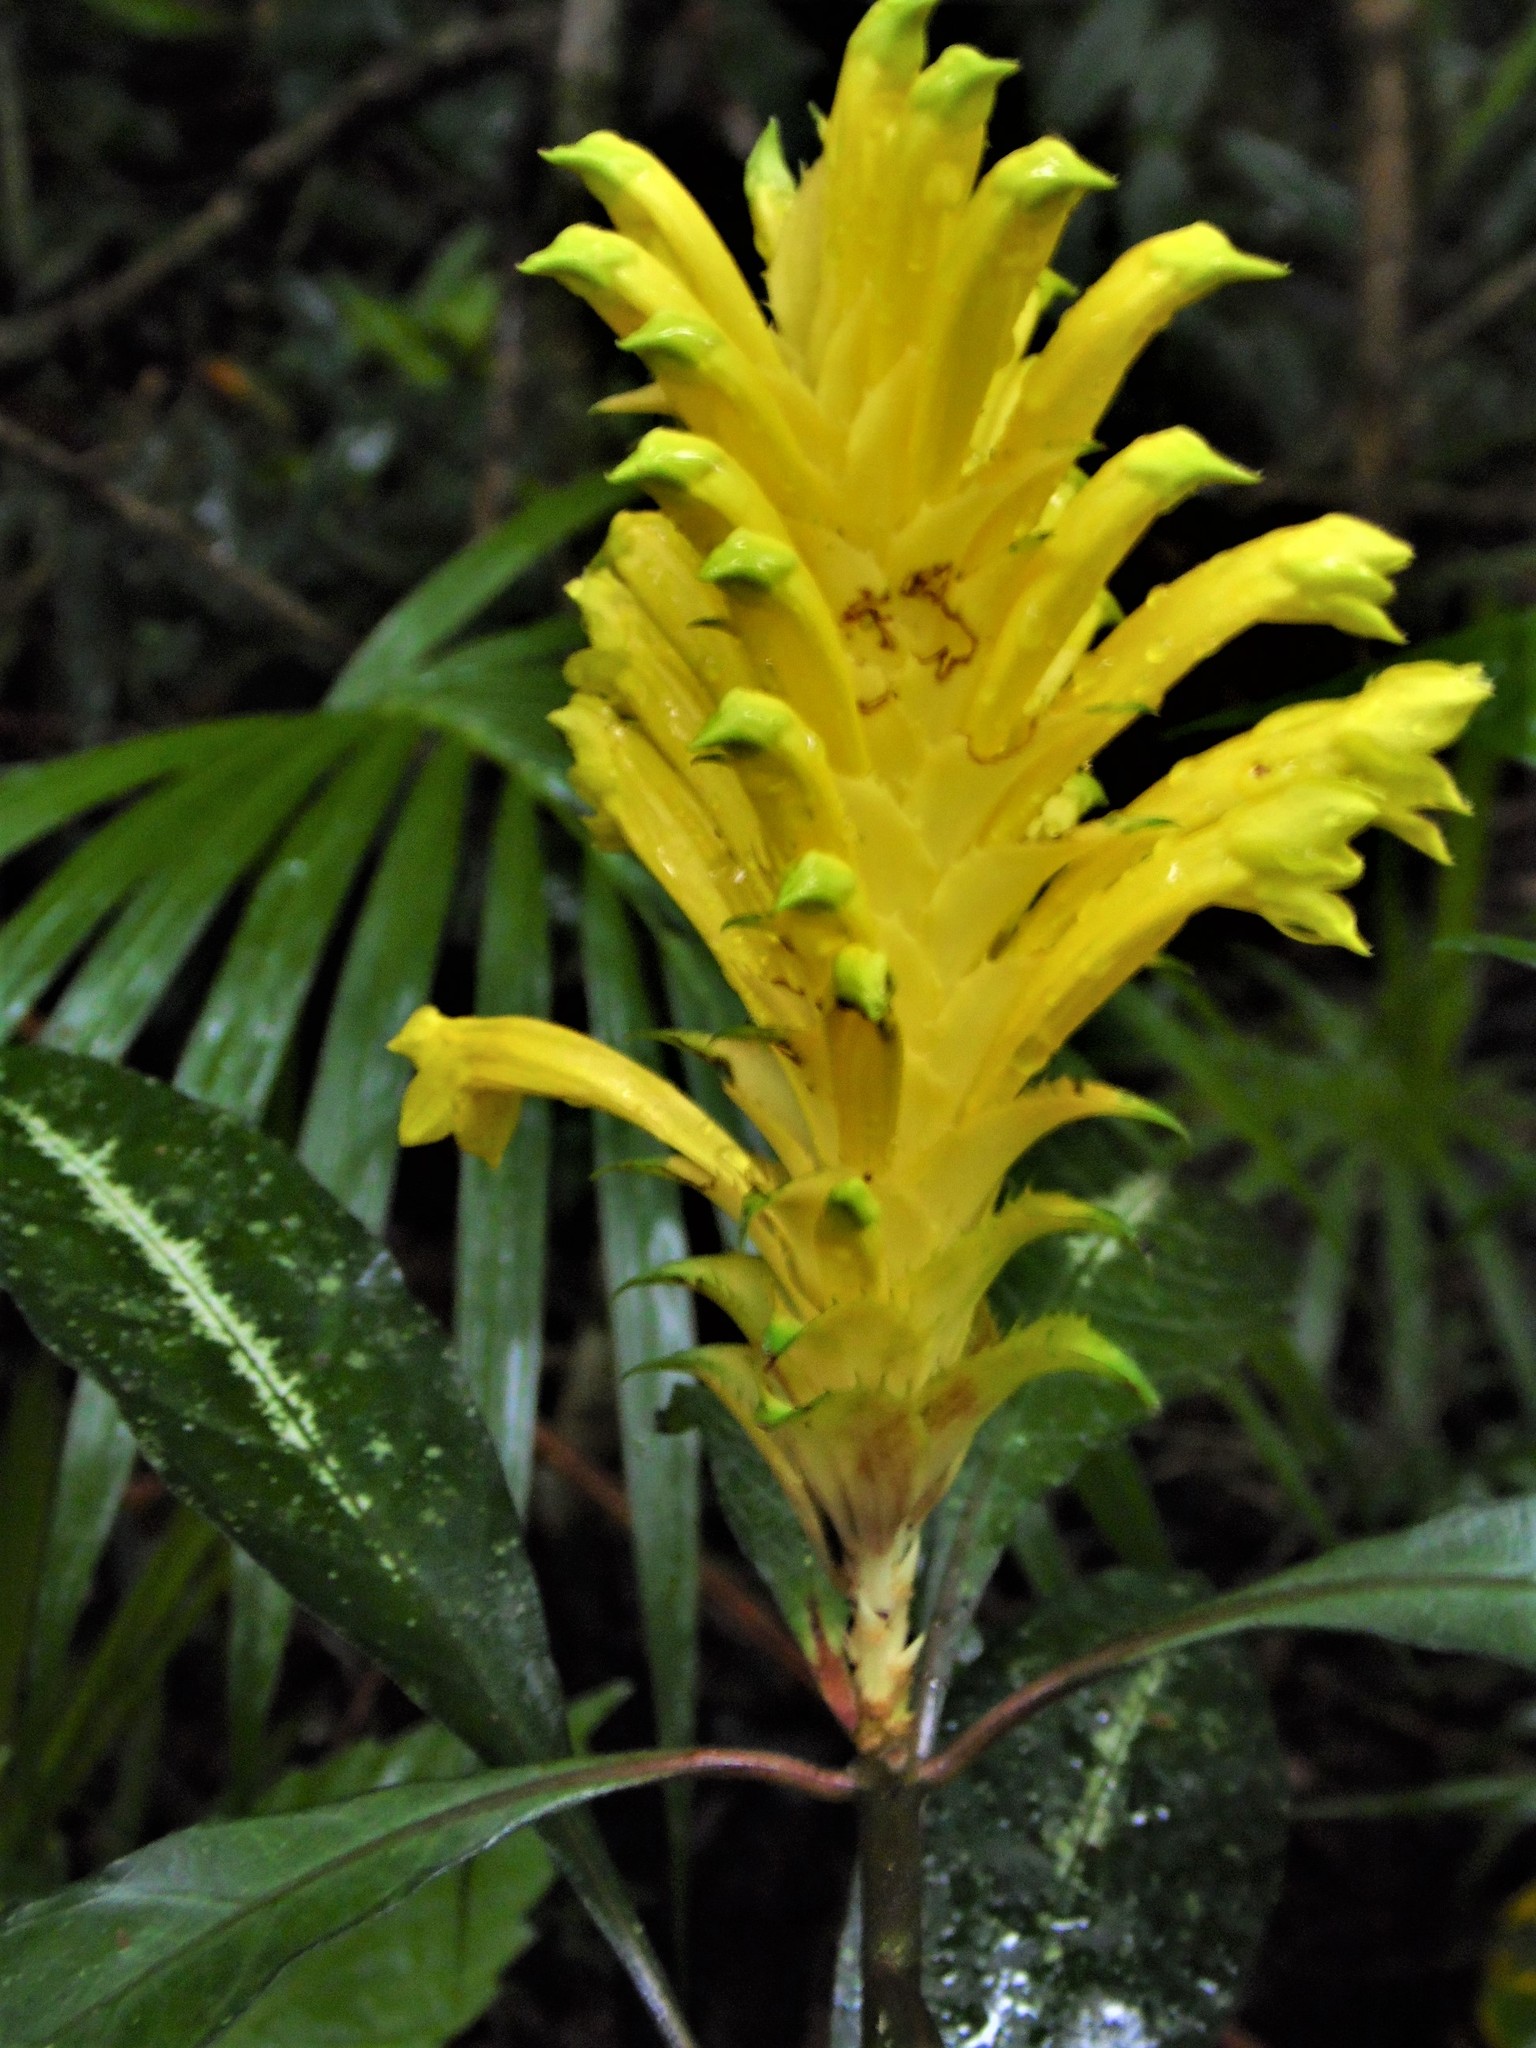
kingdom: Plantae
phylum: Tracheophyta
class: Magnoliopsida
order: Lamiales
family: Acanthaceae
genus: Aphelandra
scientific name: Aphelandra chamissoniana
